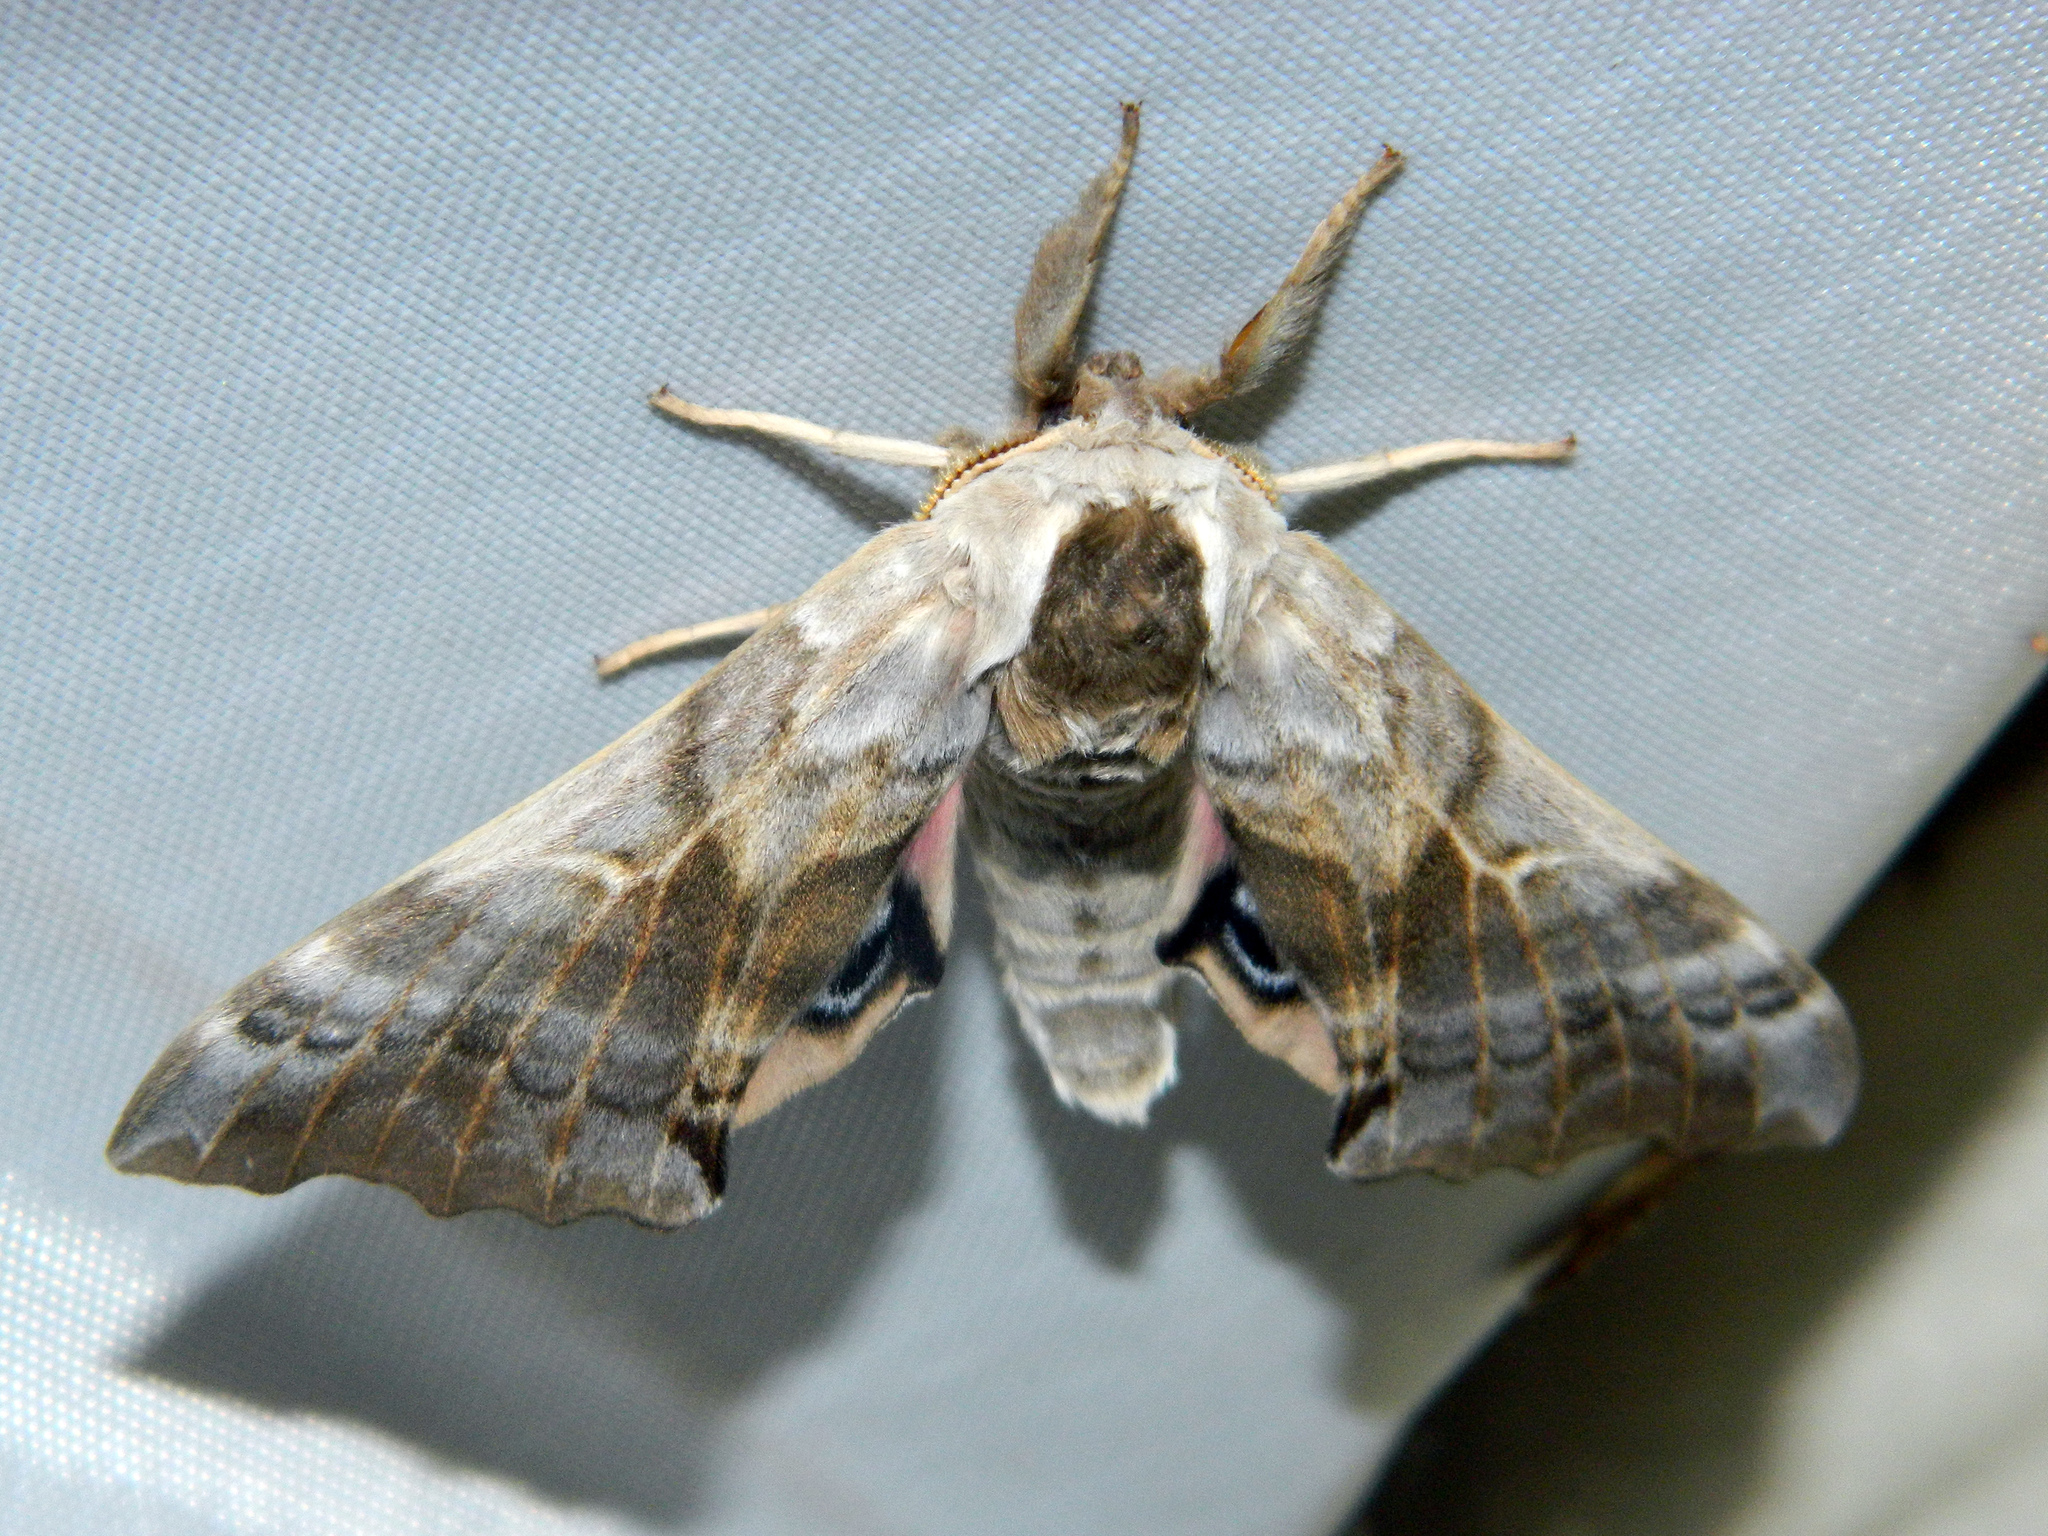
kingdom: Animalia
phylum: Arthropoda
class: Insecta
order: Lepidoptera
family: Sphingidae
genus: Smerinthus
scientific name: Smerinthus cerisyi
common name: Cerisy's sphinx moth
